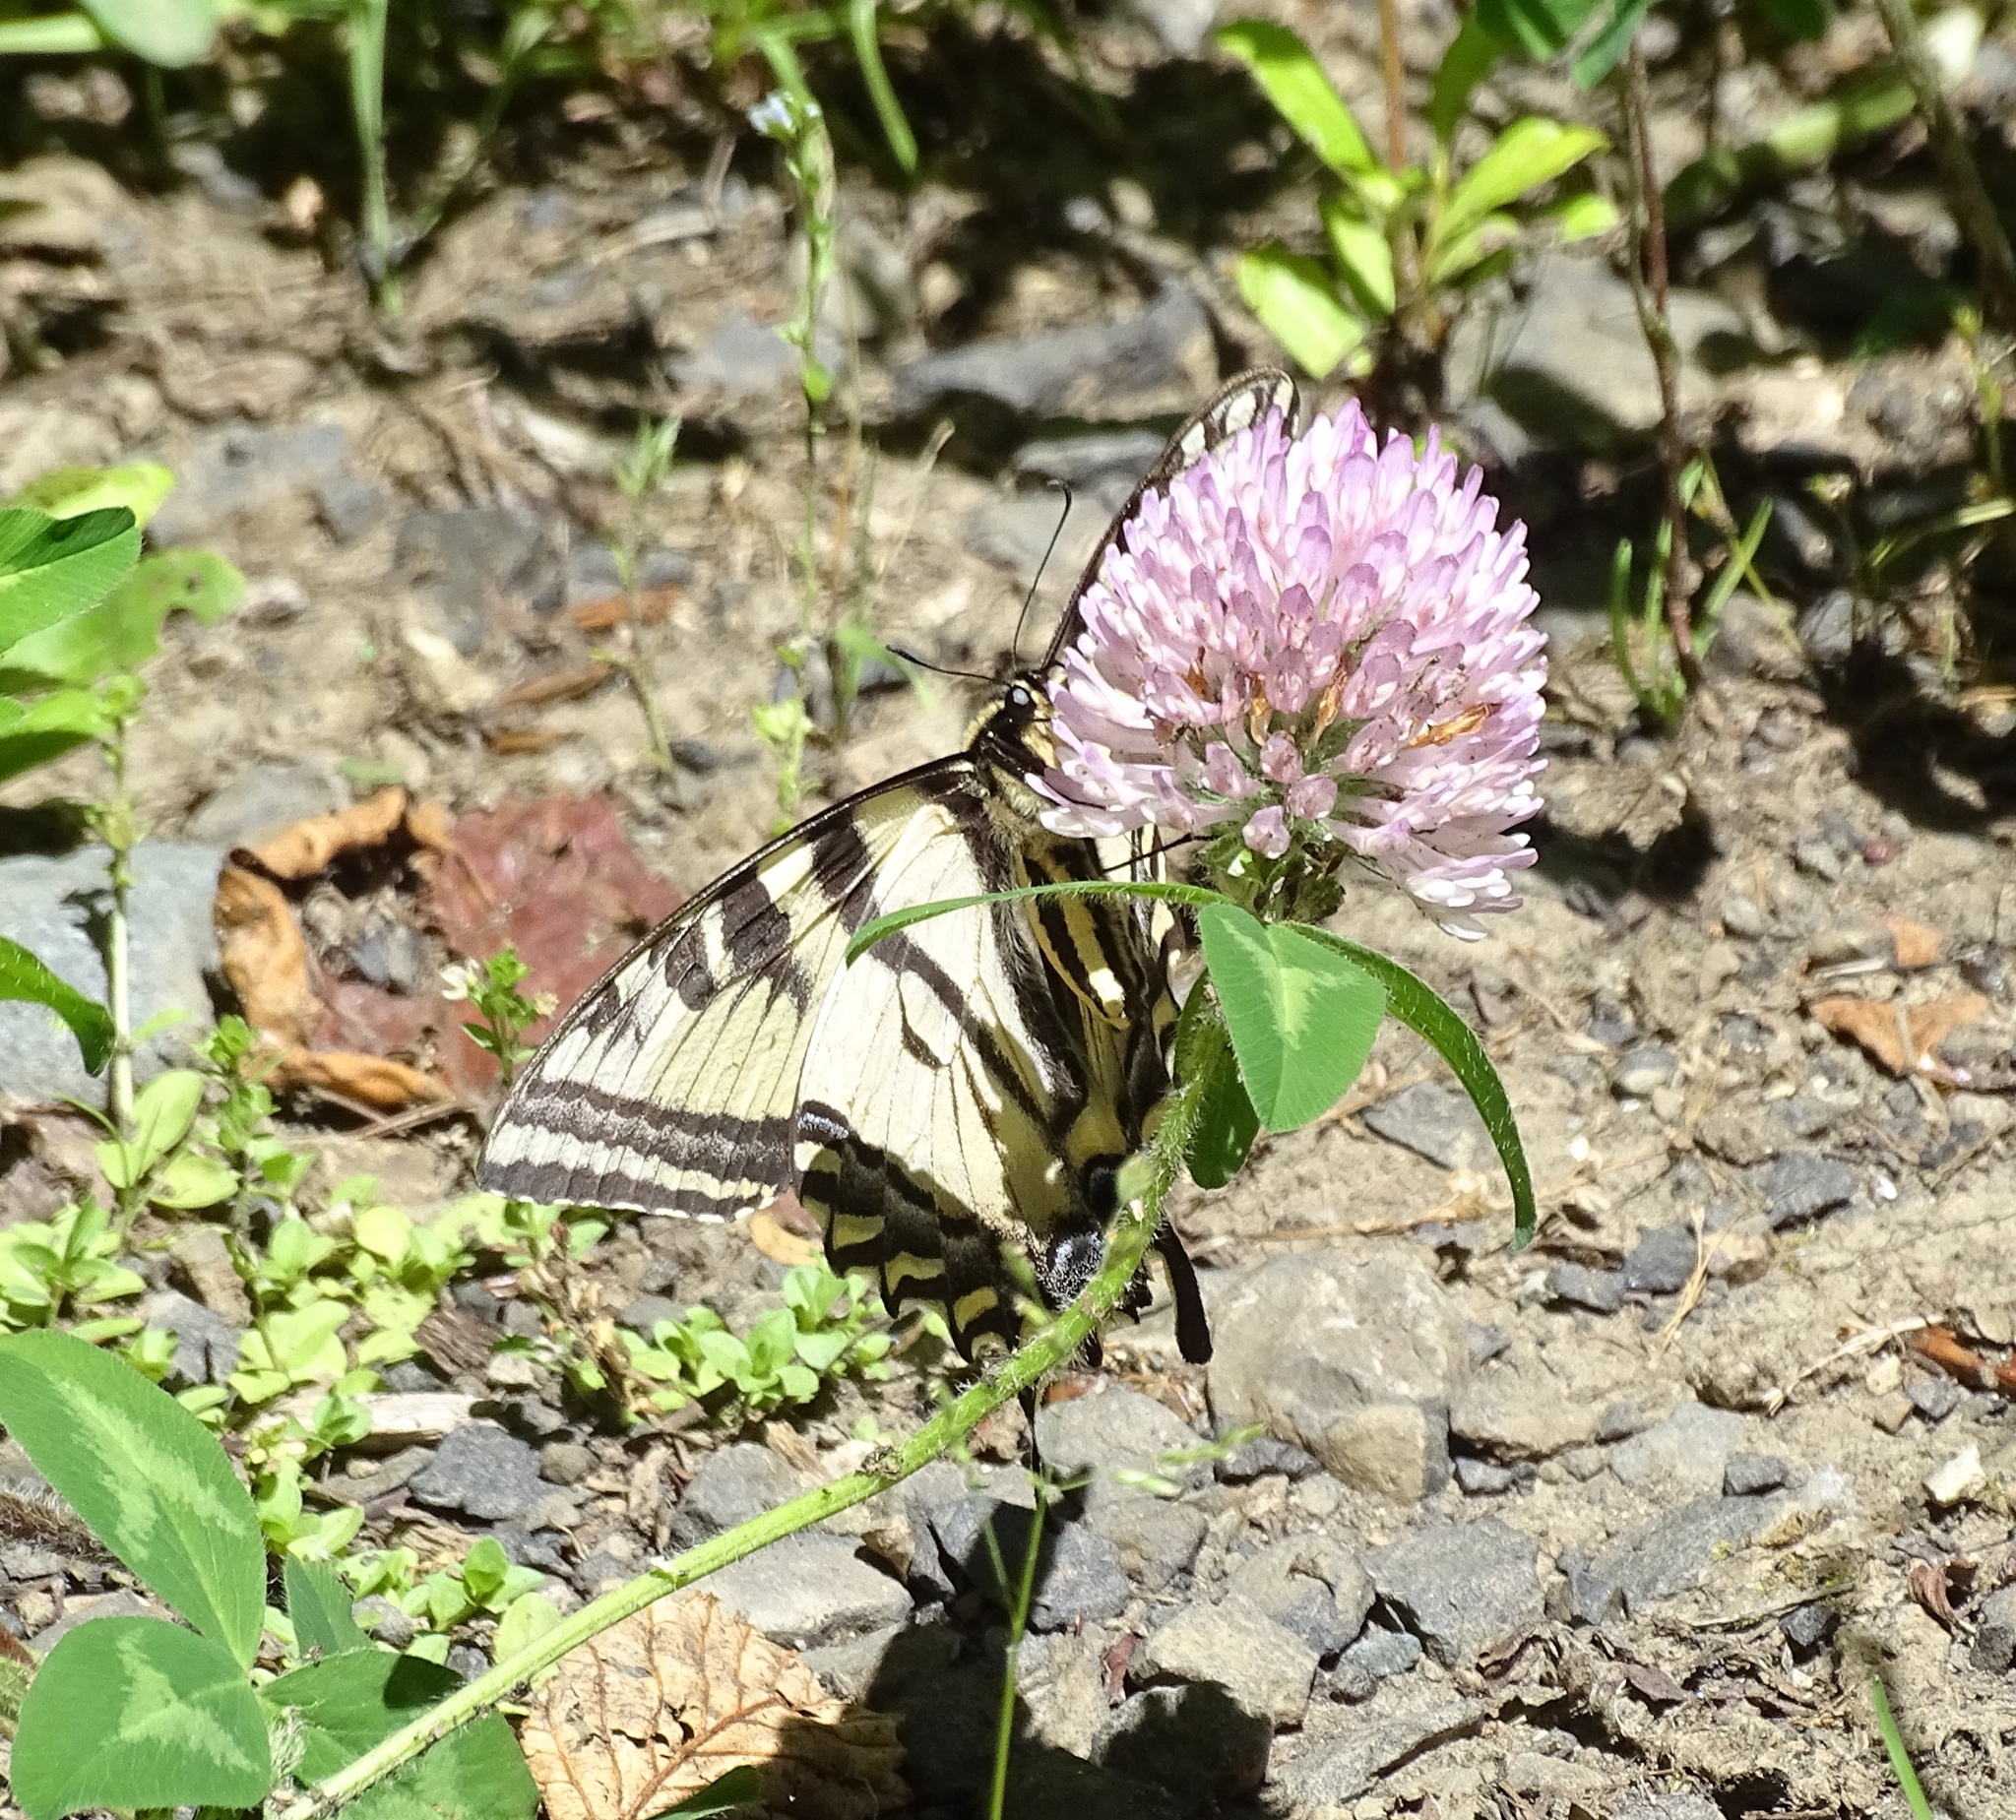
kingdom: Animalia
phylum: Arthropoda
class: Insecta
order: Lepidoptera
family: Papilionidae
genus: Papilio
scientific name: Papilio rutulus
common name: Western tiger swallowtail
